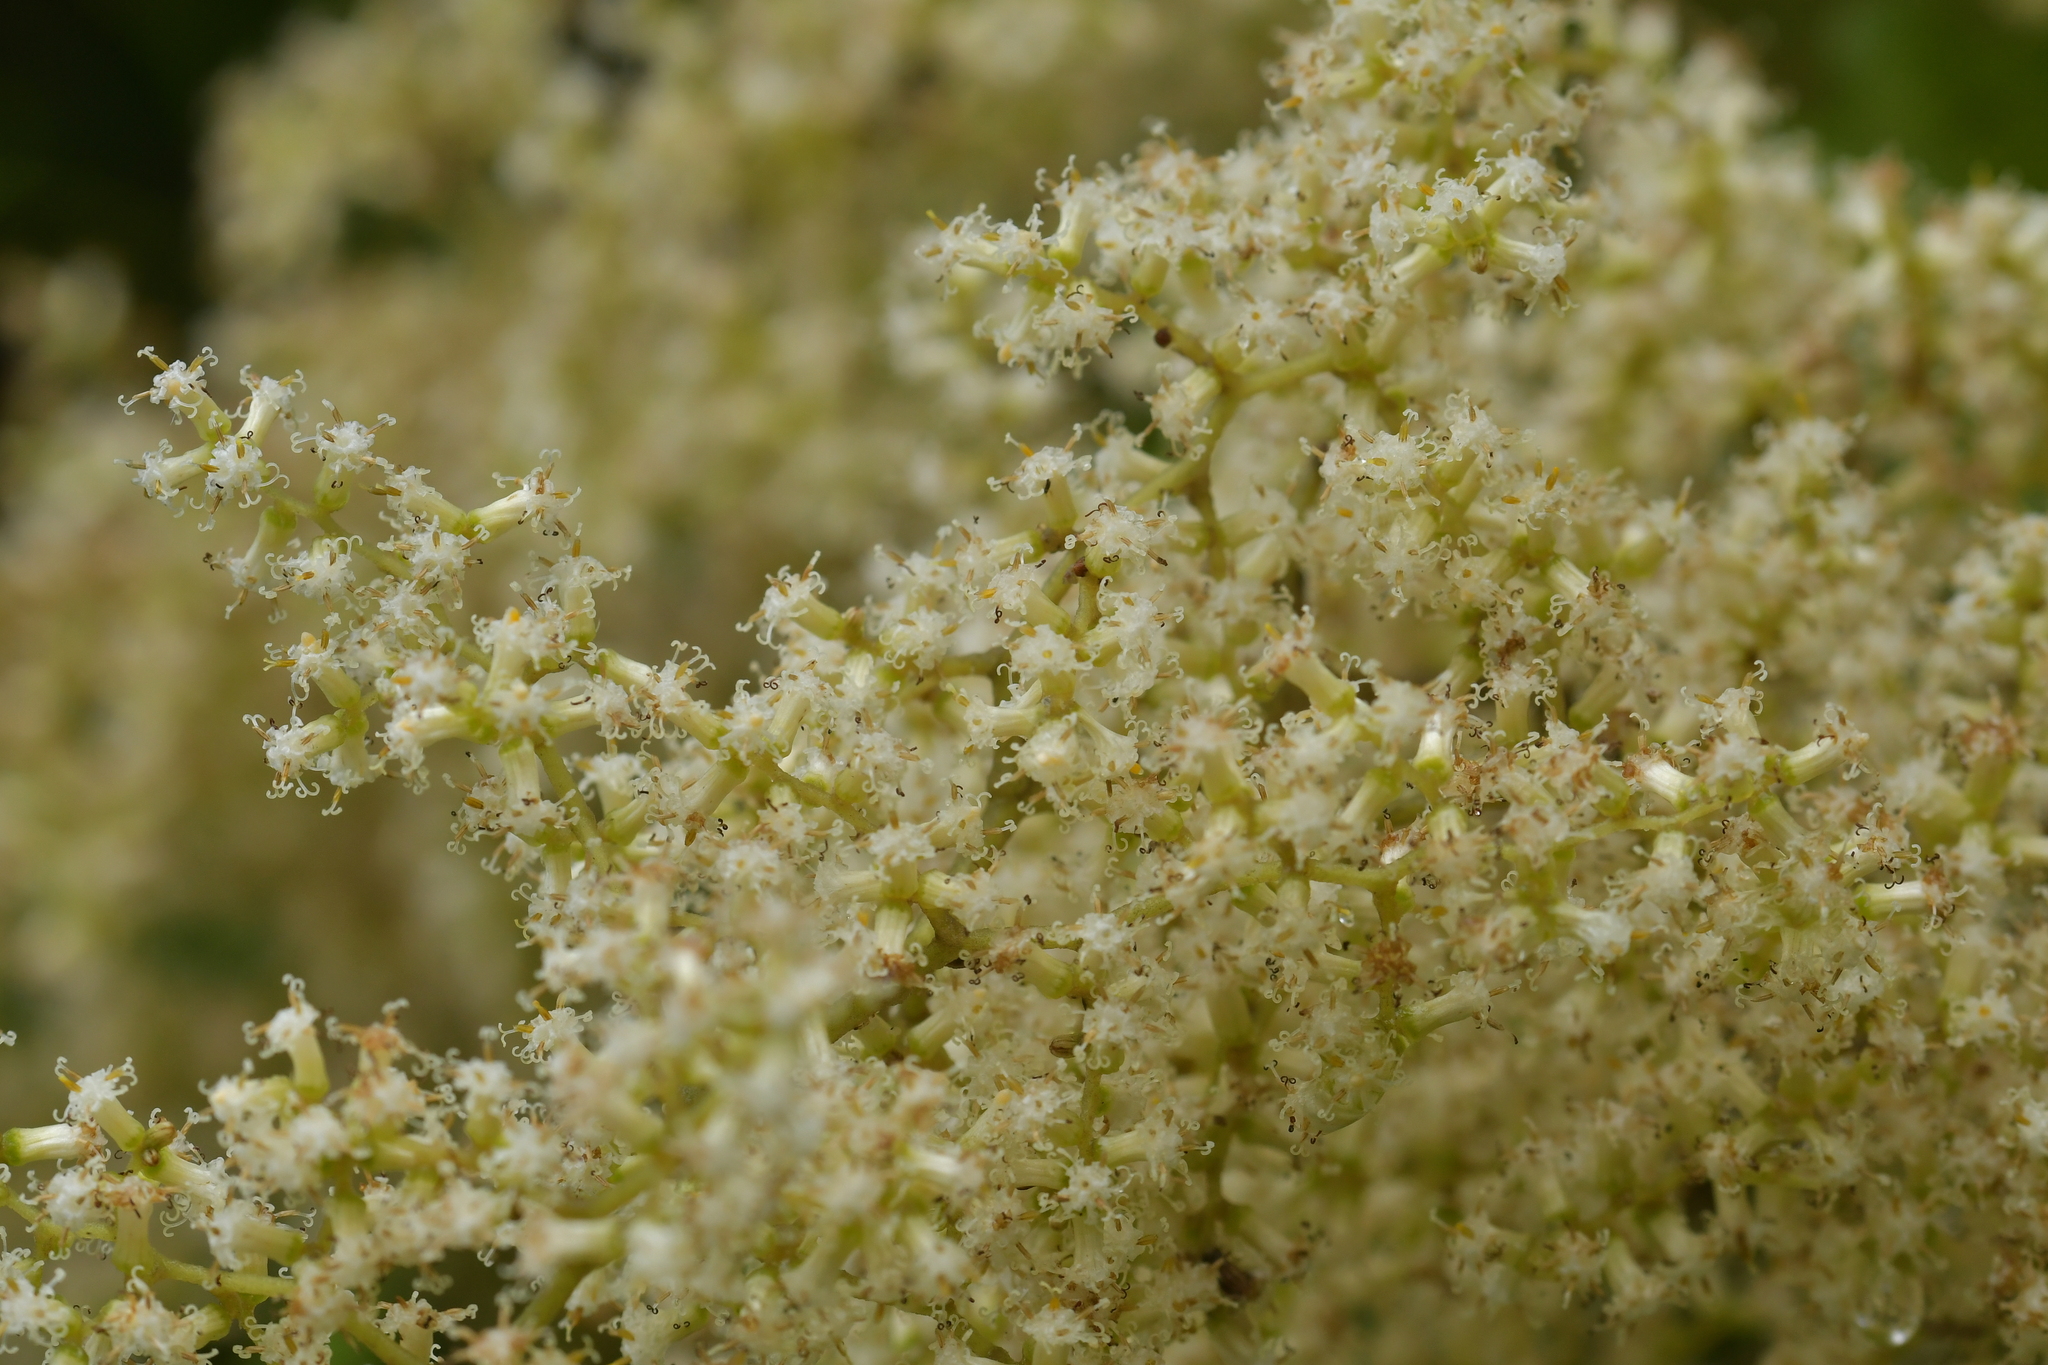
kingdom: Plantae
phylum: Tracheophyta
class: Magnoliopsida
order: Asterales
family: Asteraceae
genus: Brachyglottis
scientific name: Brachyglottis repanda
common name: Hedge ragwort
